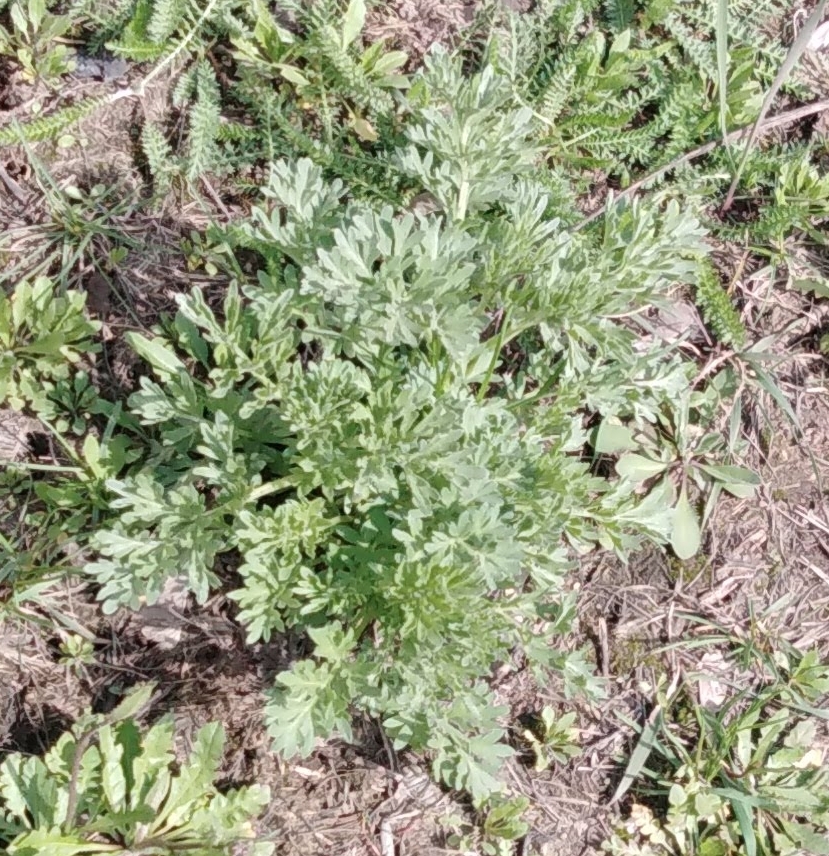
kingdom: Plantae
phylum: Tracheophyta
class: Magnoliopsida
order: Asterales
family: Asteraceae
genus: Artemisia
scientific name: Artemisia absinthium
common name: Wormwood
